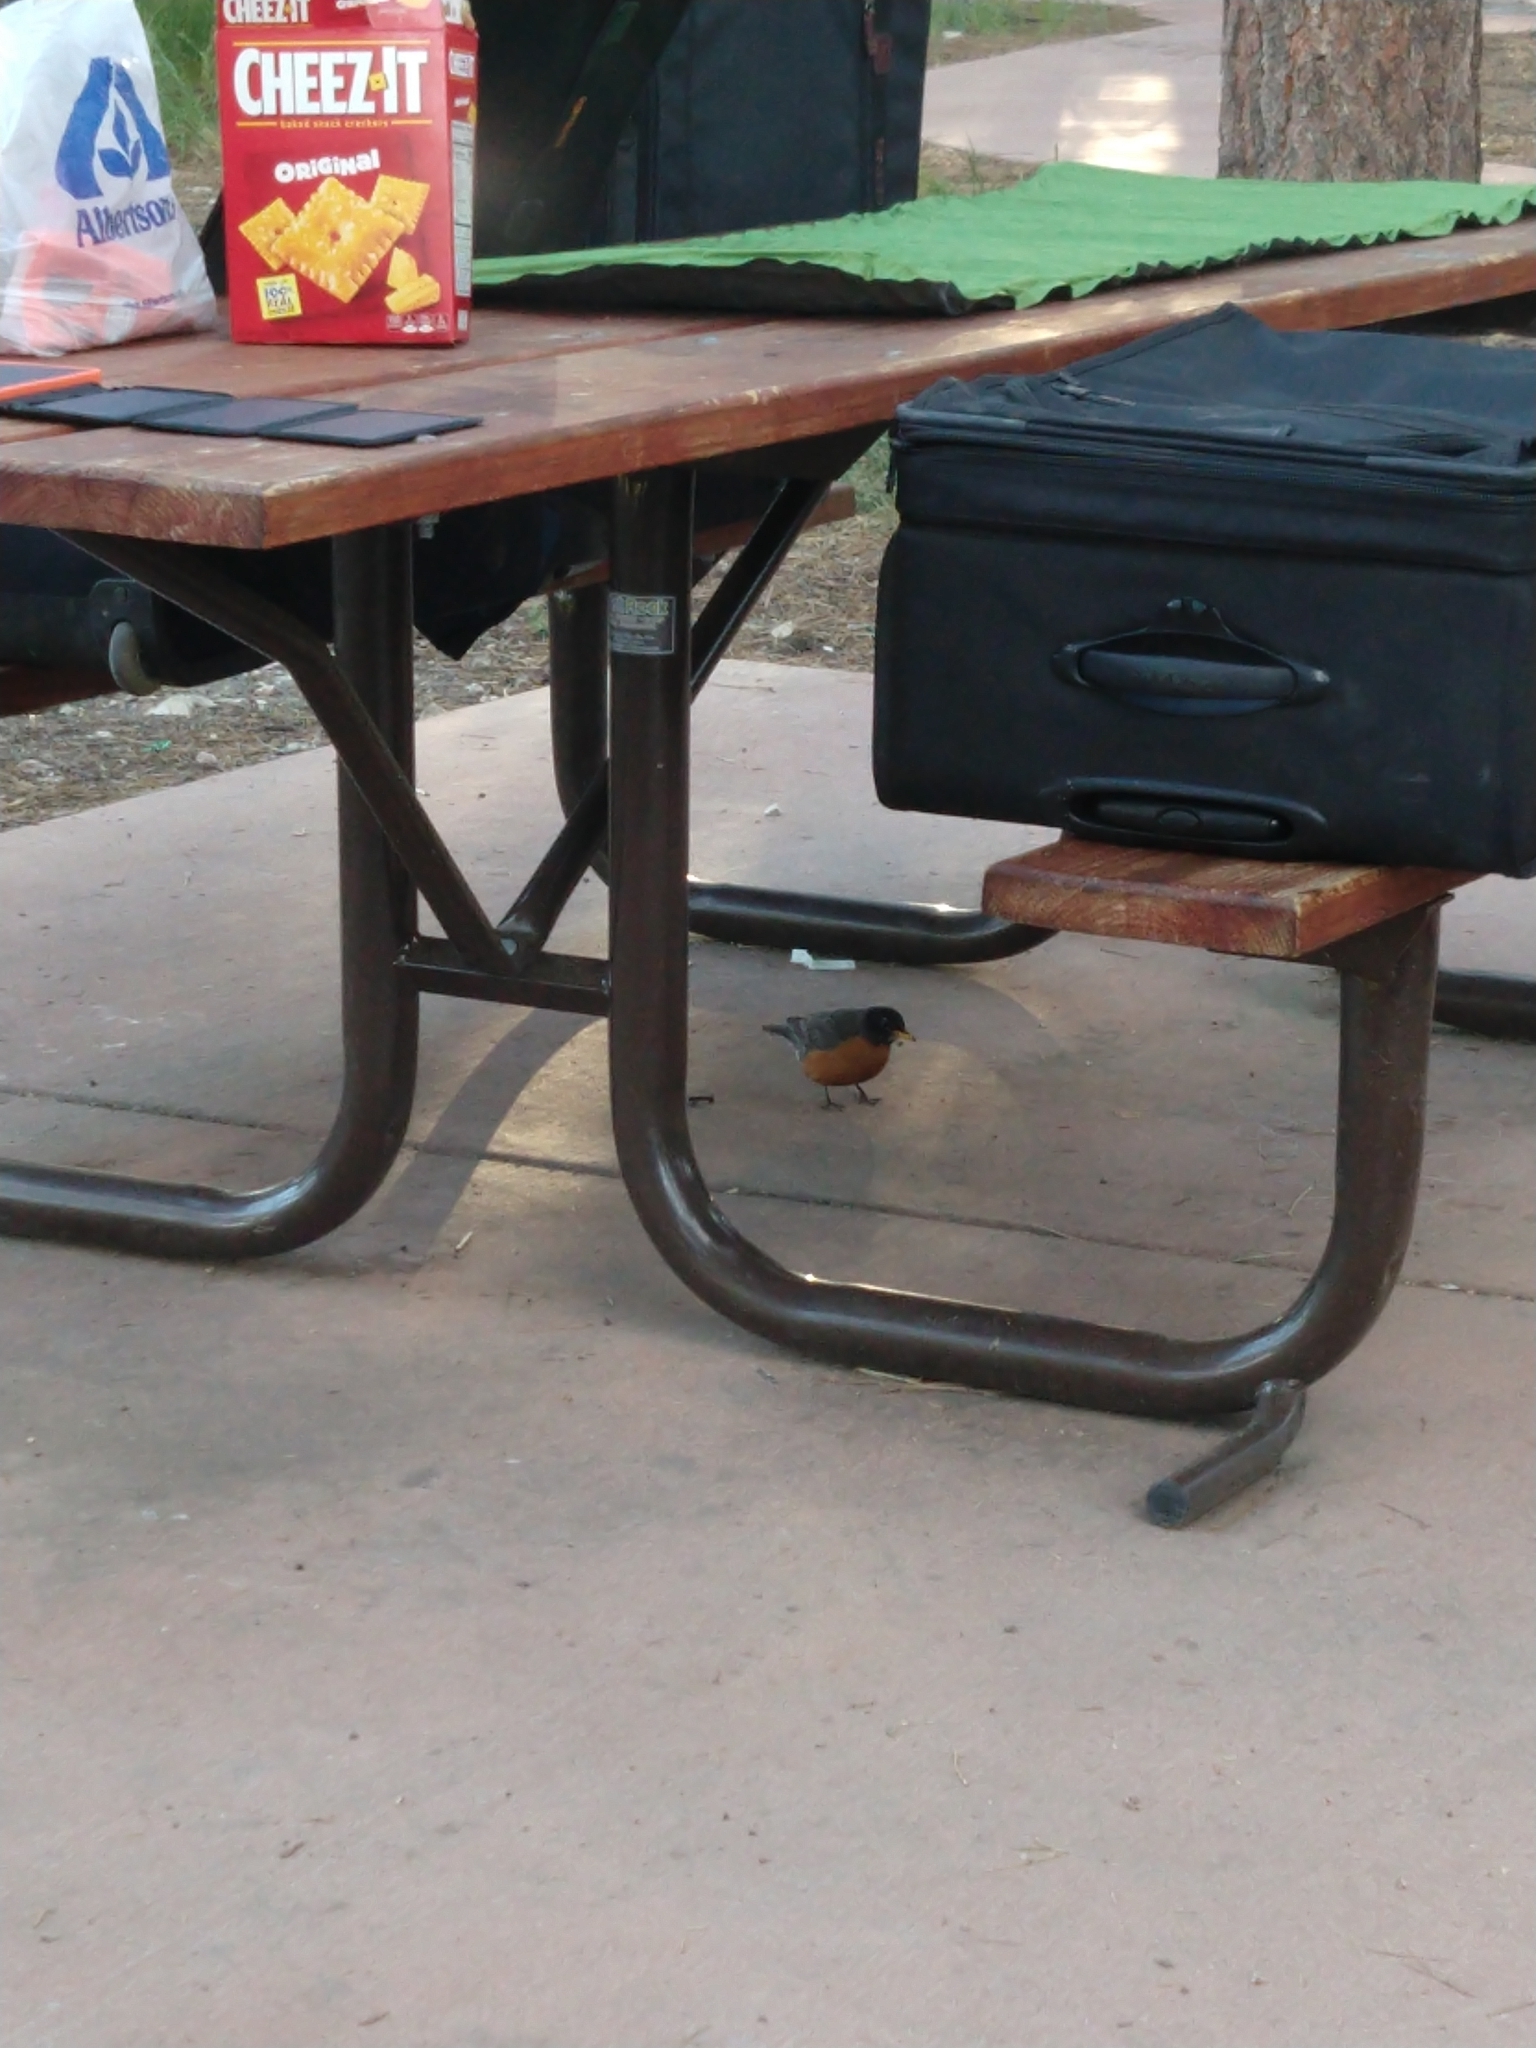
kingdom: Animalia
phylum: Chordata
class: Aves
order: Passeriformes
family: Turdidae
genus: Turdus
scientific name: Turdus migratorius
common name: American robin
